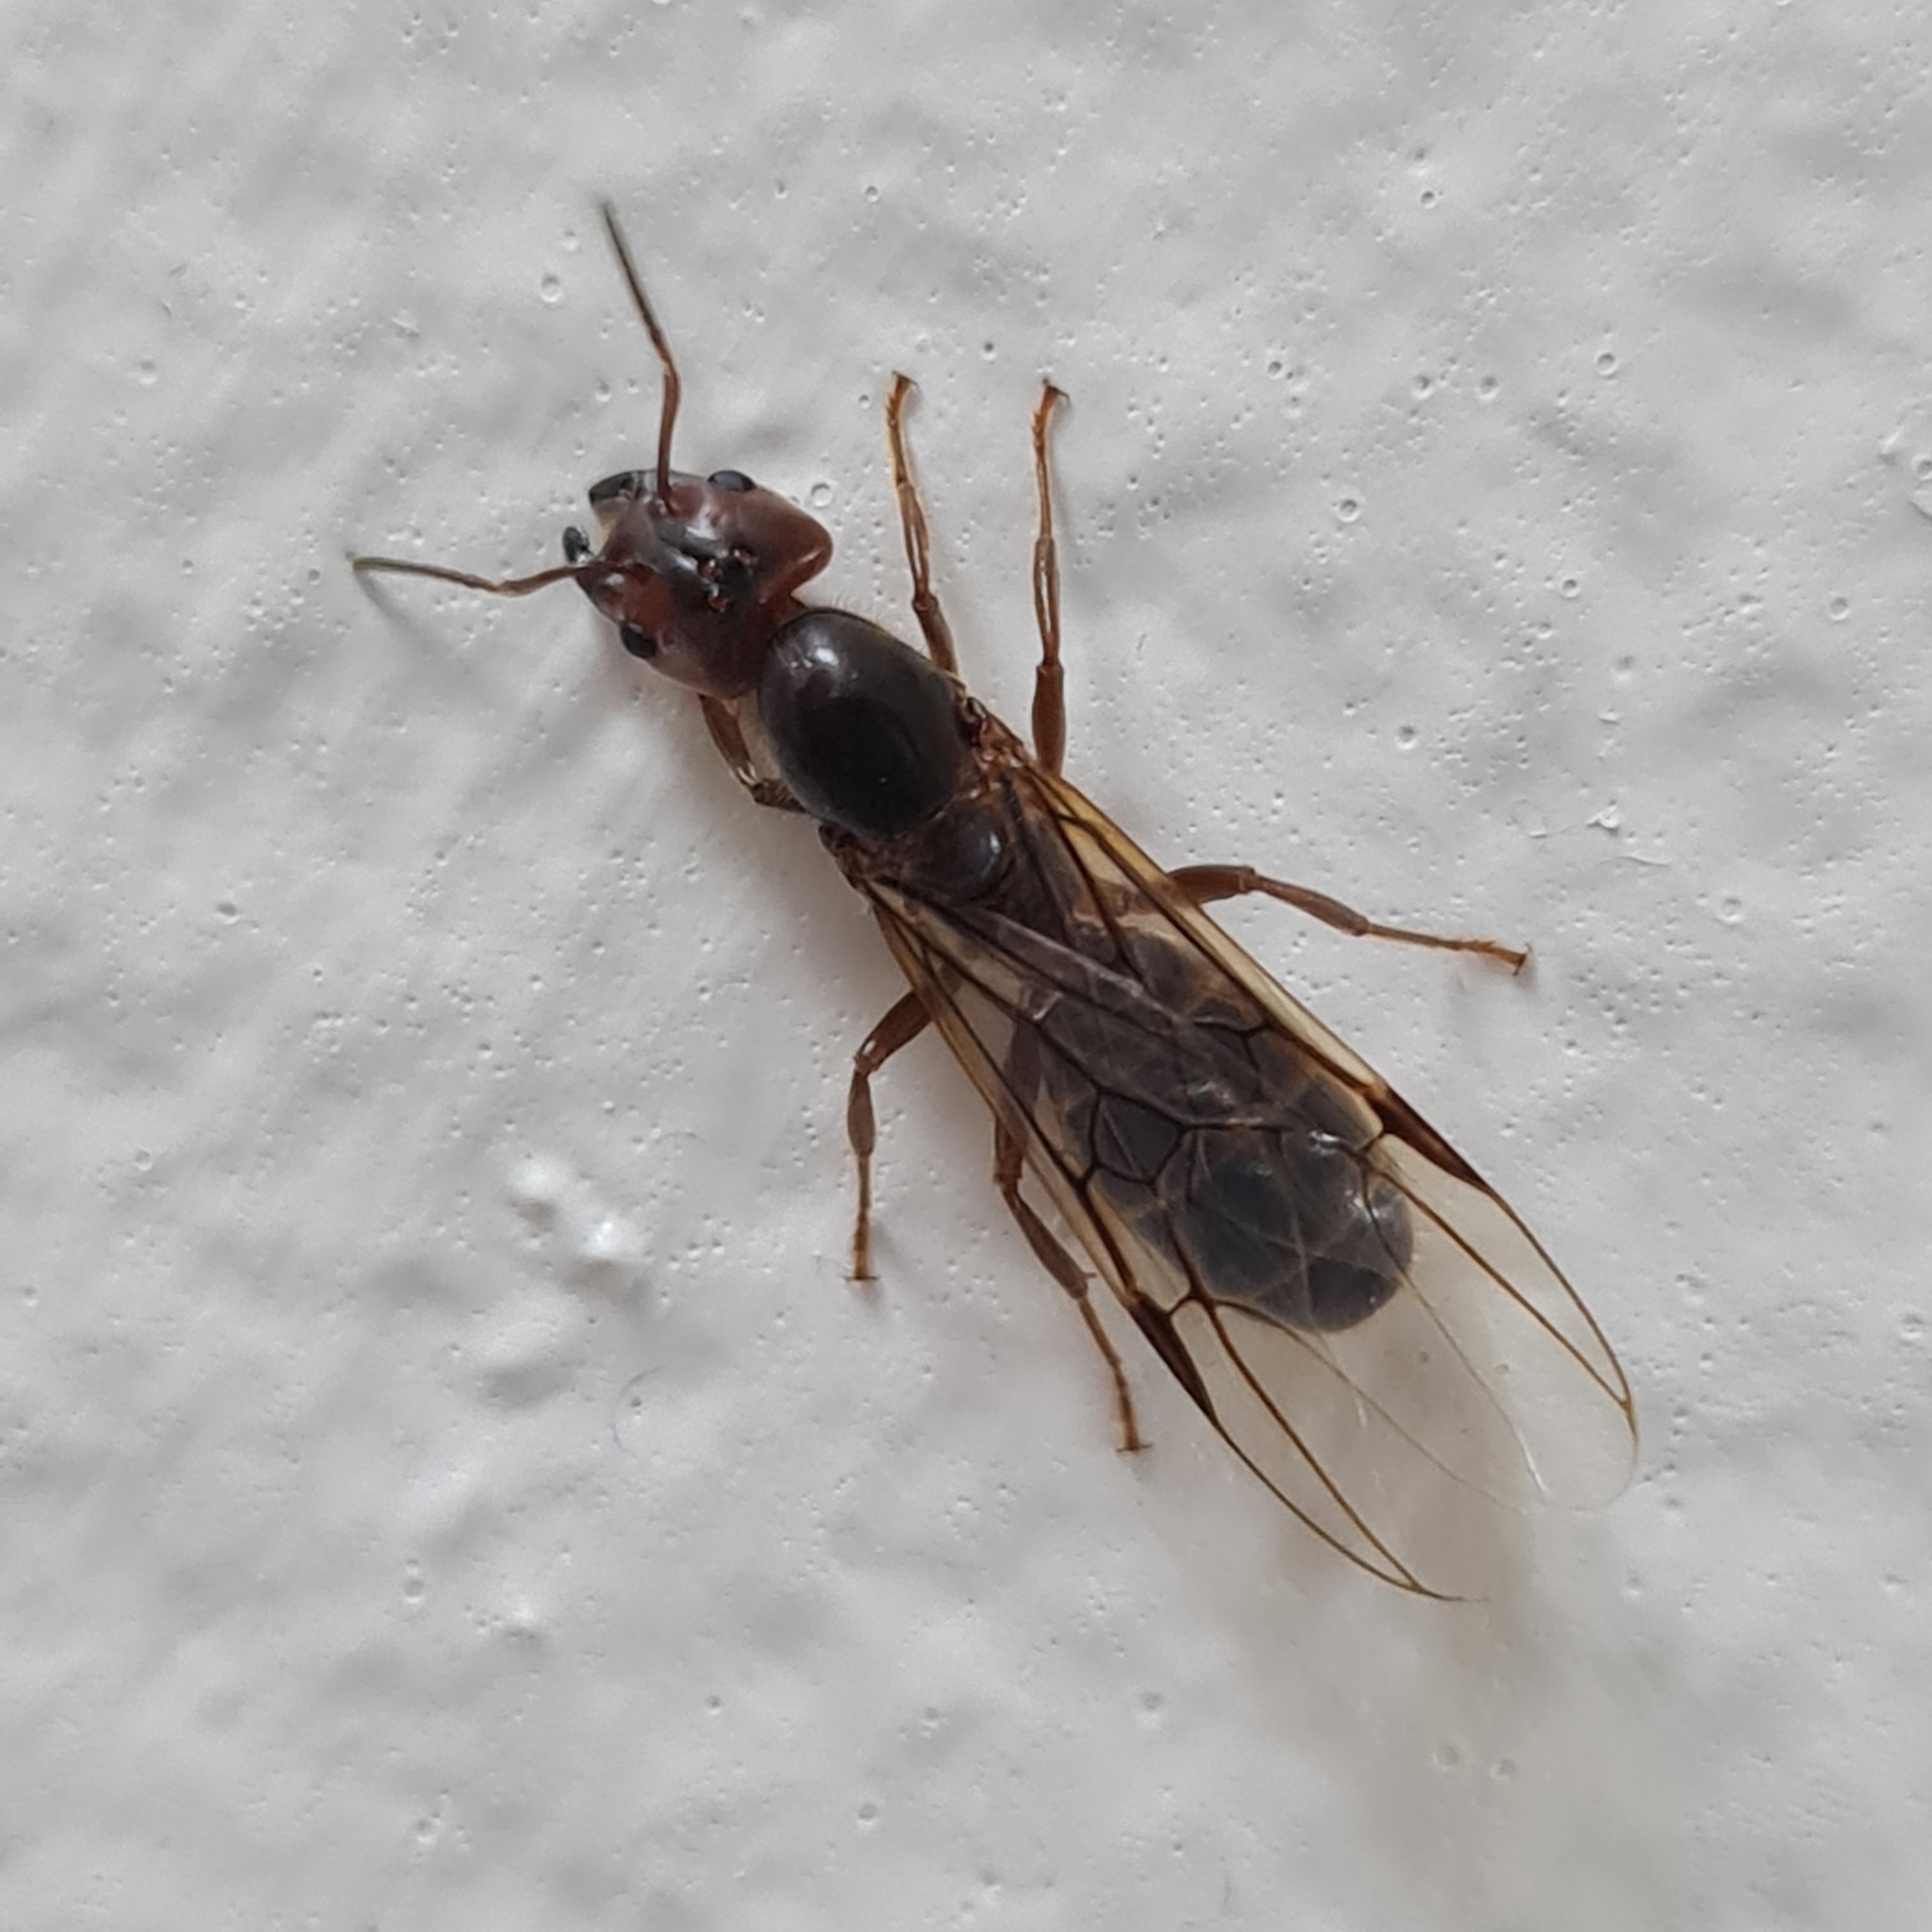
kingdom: Animalia
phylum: Arthropoda
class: Insecta
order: Hymenoptera
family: Formicidae
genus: Azteca
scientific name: Azteca alfari
